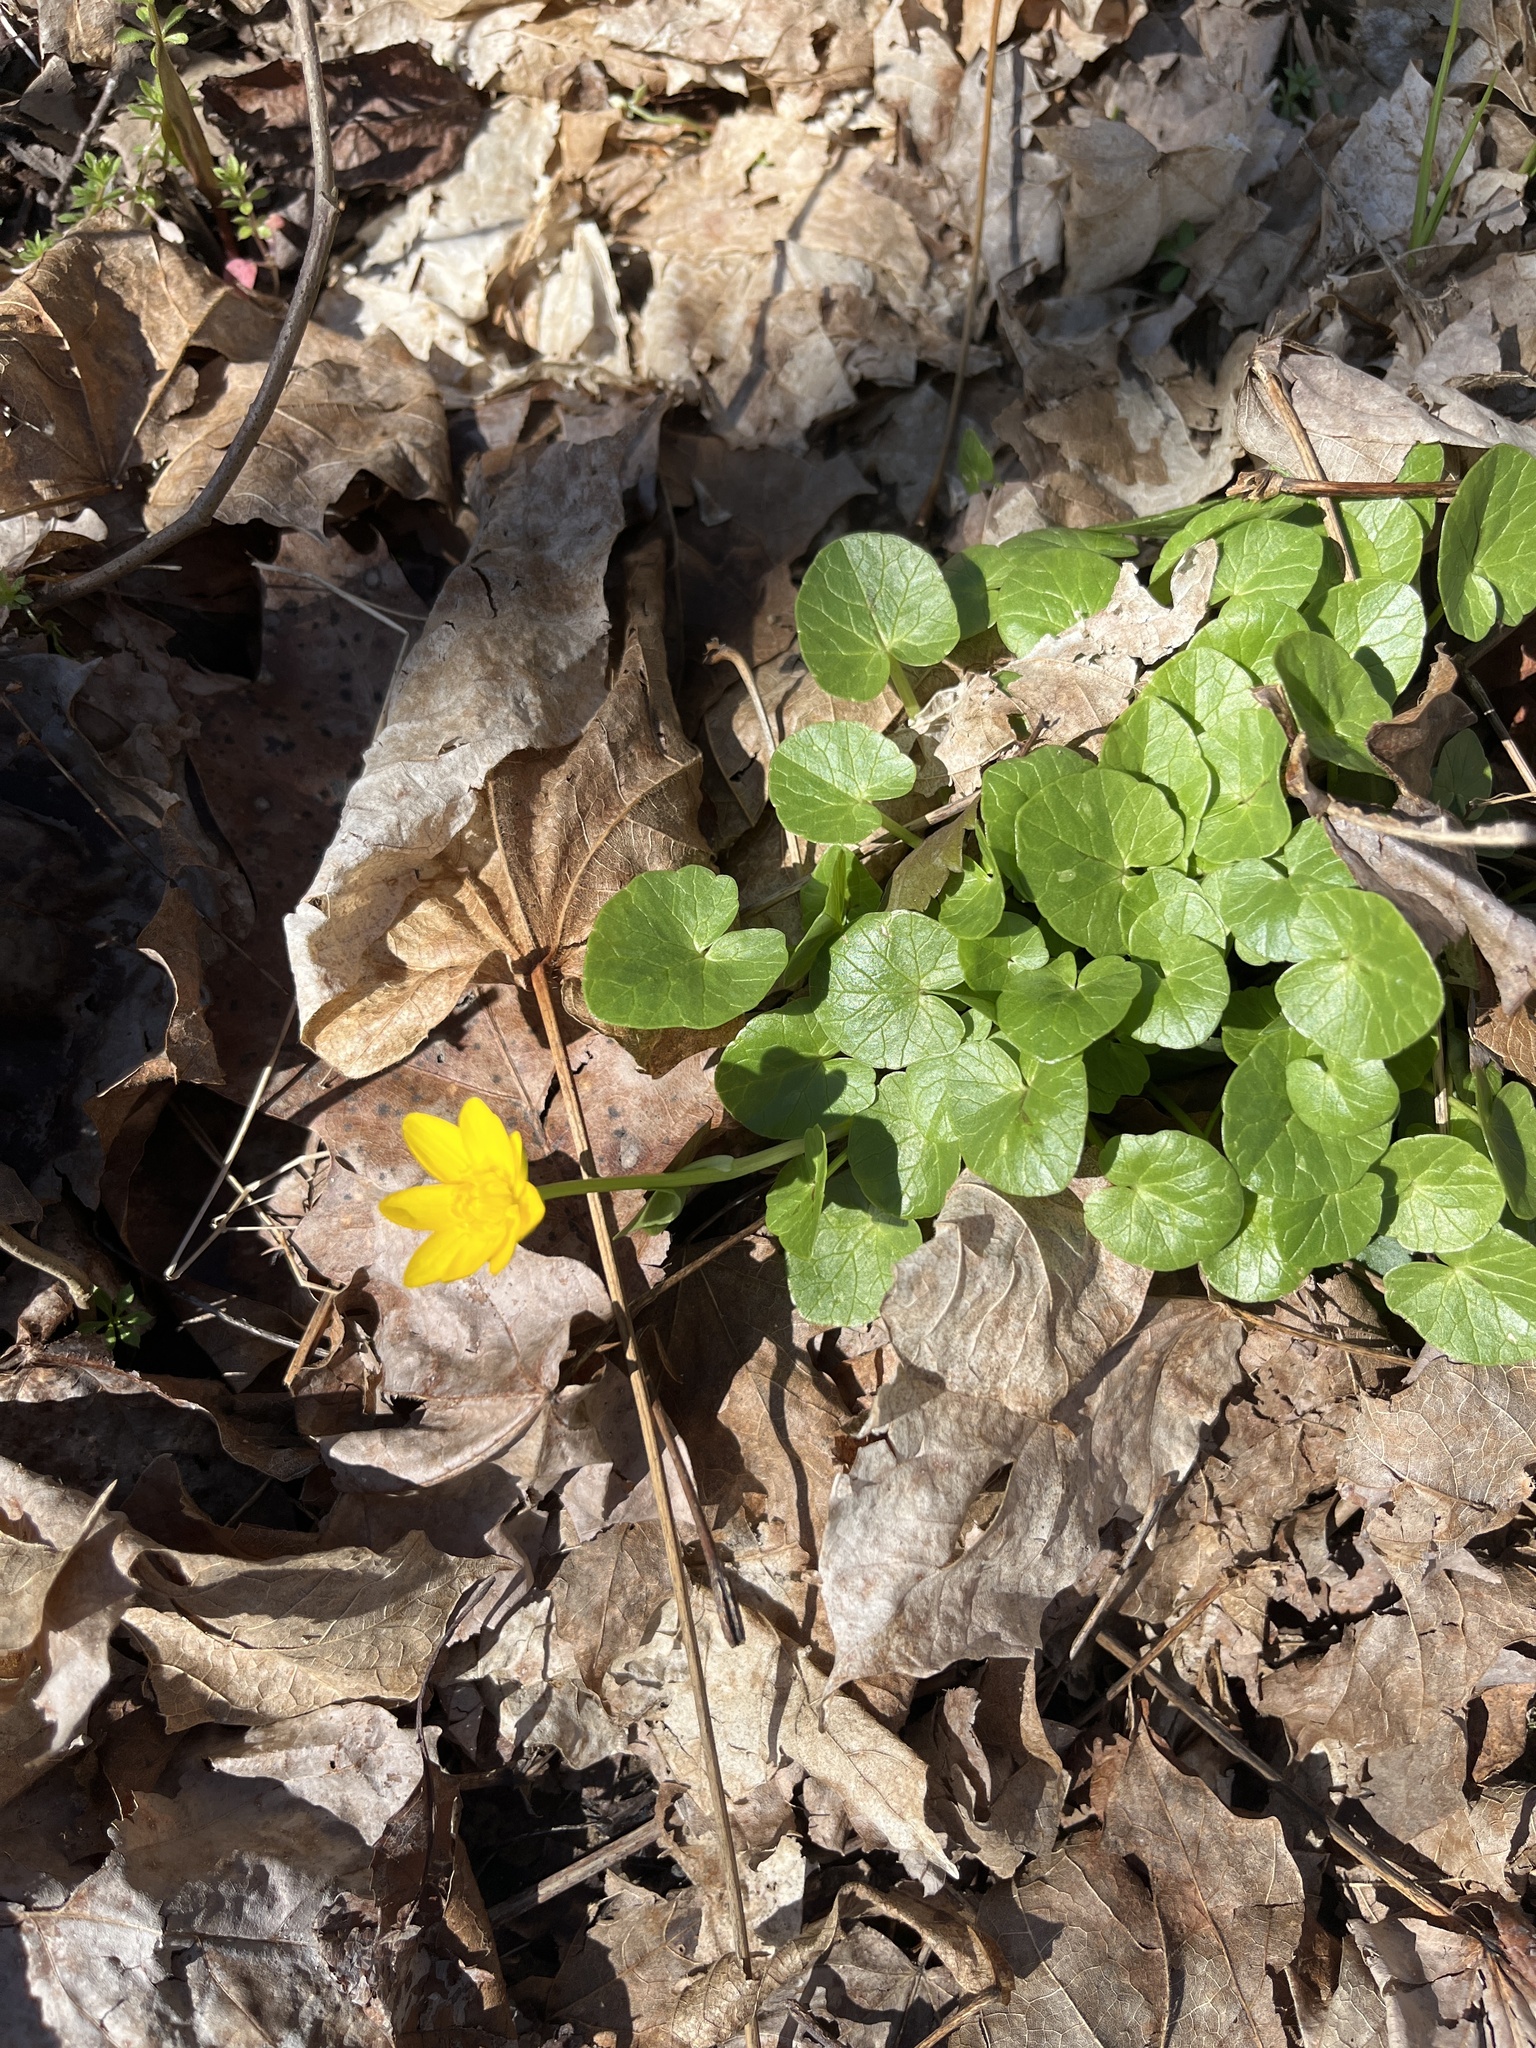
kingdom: Plantae
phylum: Tracheophyta
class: Magnoliopsida
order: Ranunculales
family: Ranunculaceae
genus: Ficaria
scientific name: Ficaria verna
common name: Lesser celandine
